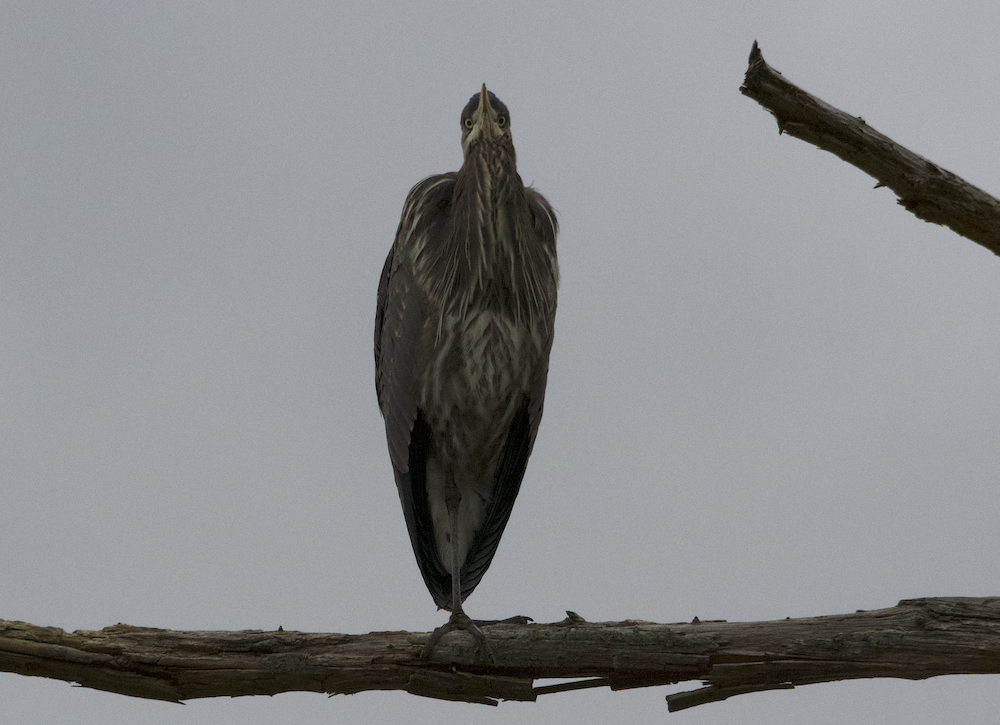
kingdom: Animalia
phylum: Chordata
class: Aves
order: Pelecaniformes
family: Ardeidae
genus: Ardea
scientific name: Ardea herodias
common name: Great blue heron
